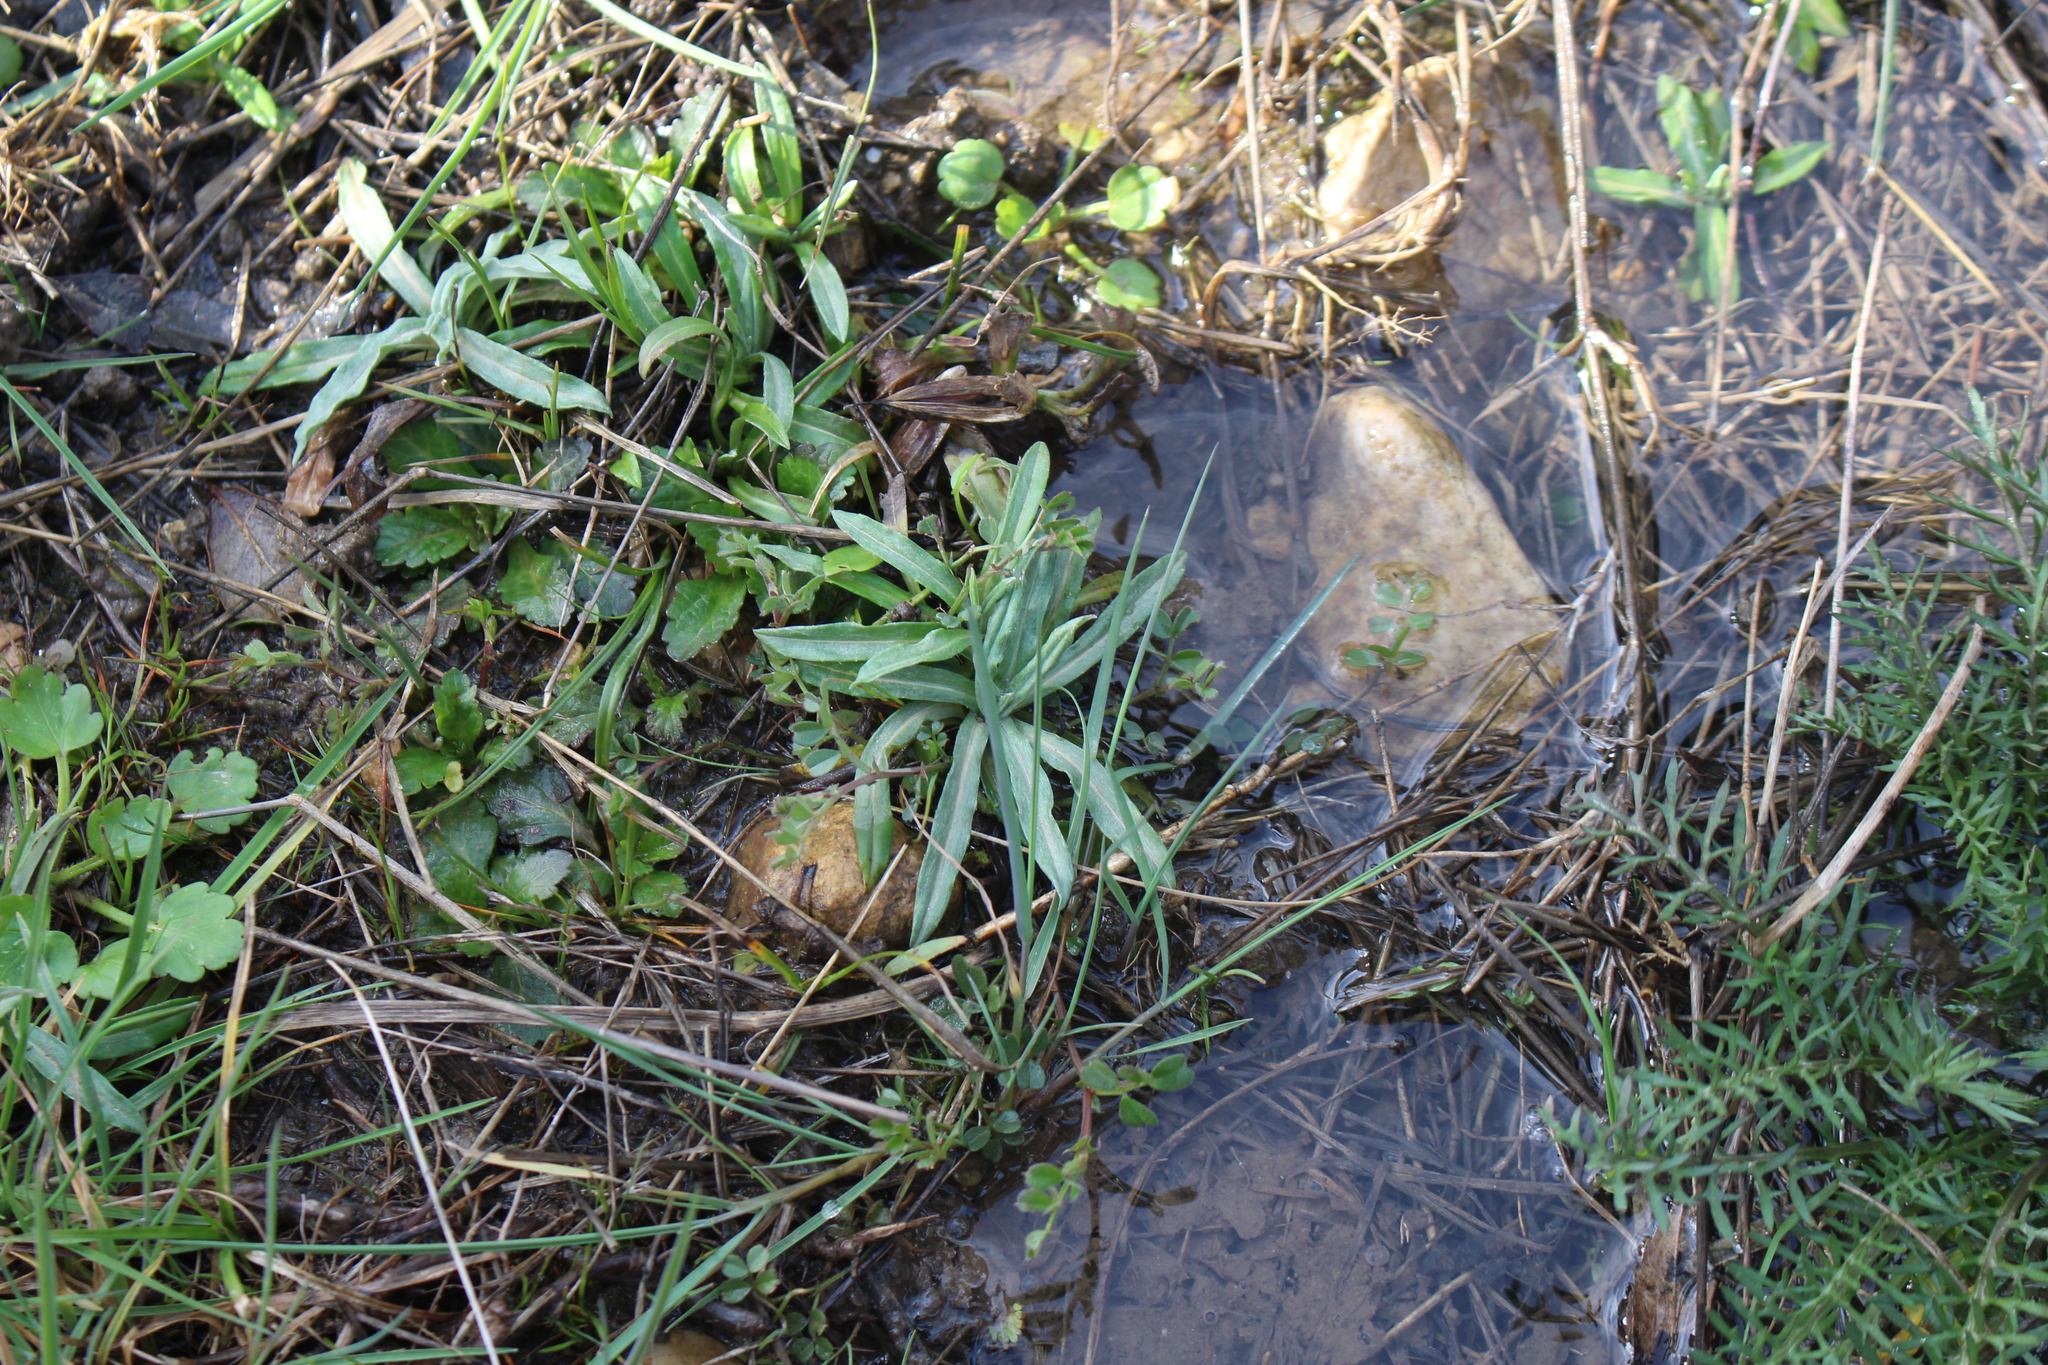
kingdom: Plantae
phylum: Tracheophyta
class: Magnoliopsida
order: Asterales
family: Asteraceae
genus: Xeranthemum
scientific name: Xeranthemum cylindraceum
